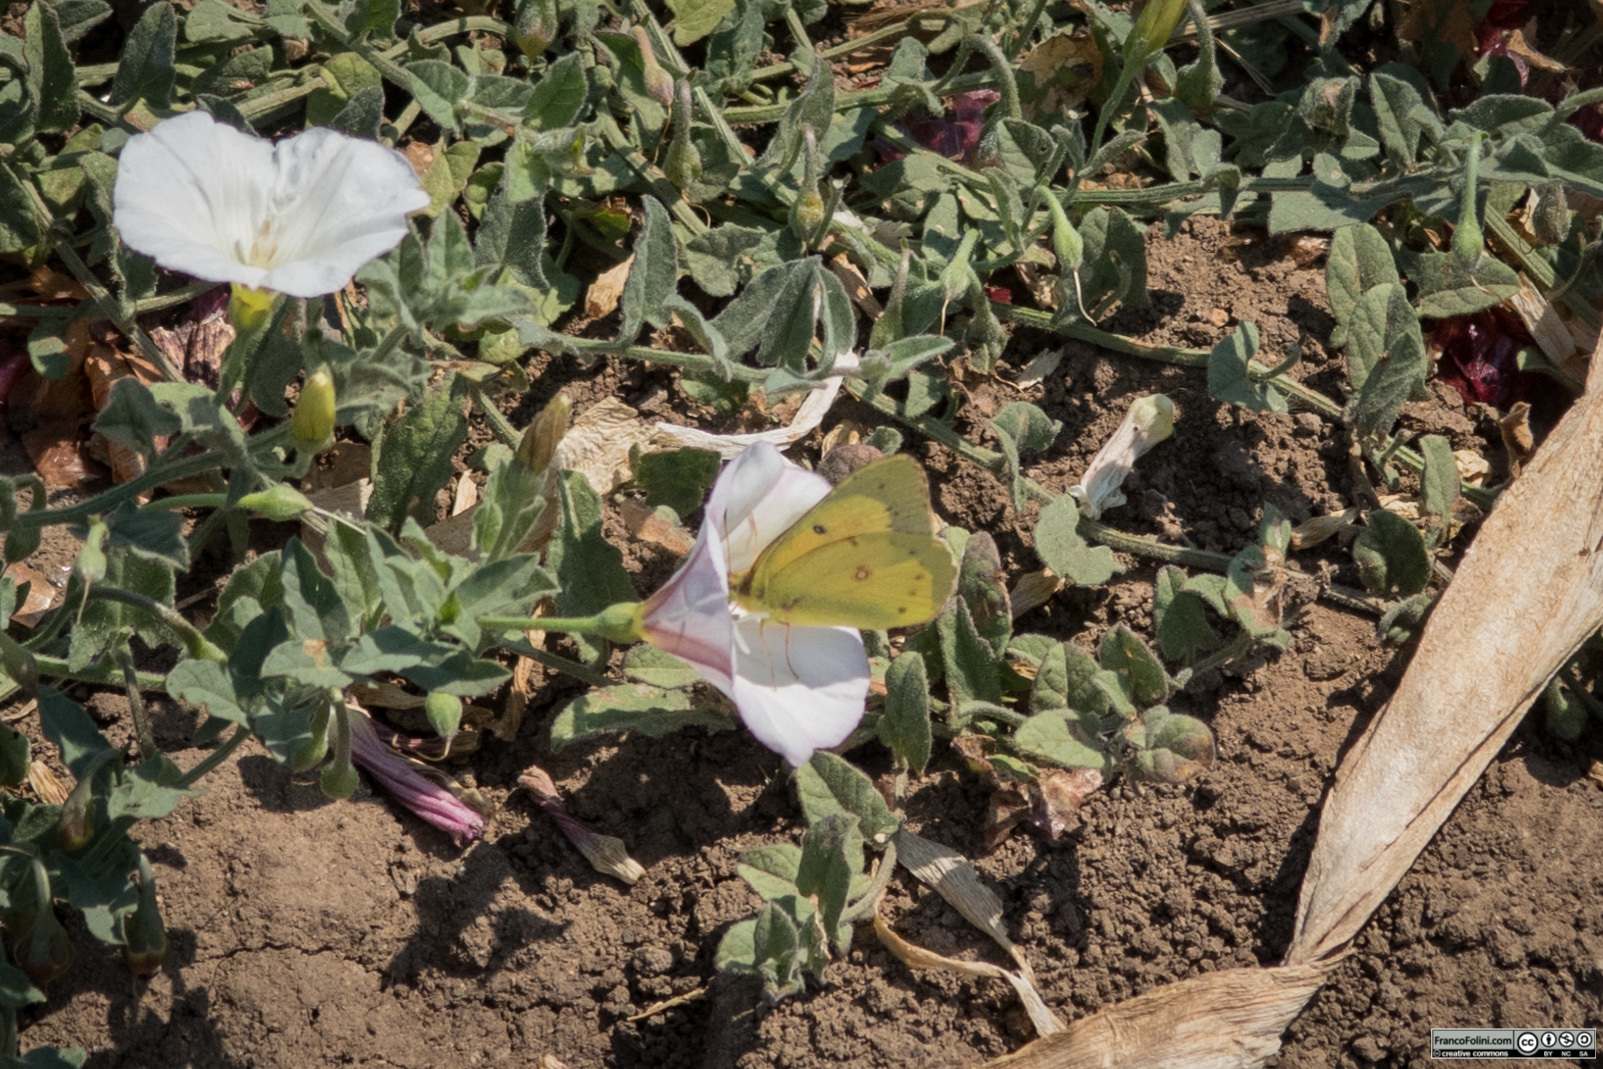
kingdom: Animalia
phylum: Arthropoda
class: Insecta
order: Lepidoptera
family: Pieridae
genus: Colias
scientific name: Colias eurytheme
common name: Alfalfa butterfly
